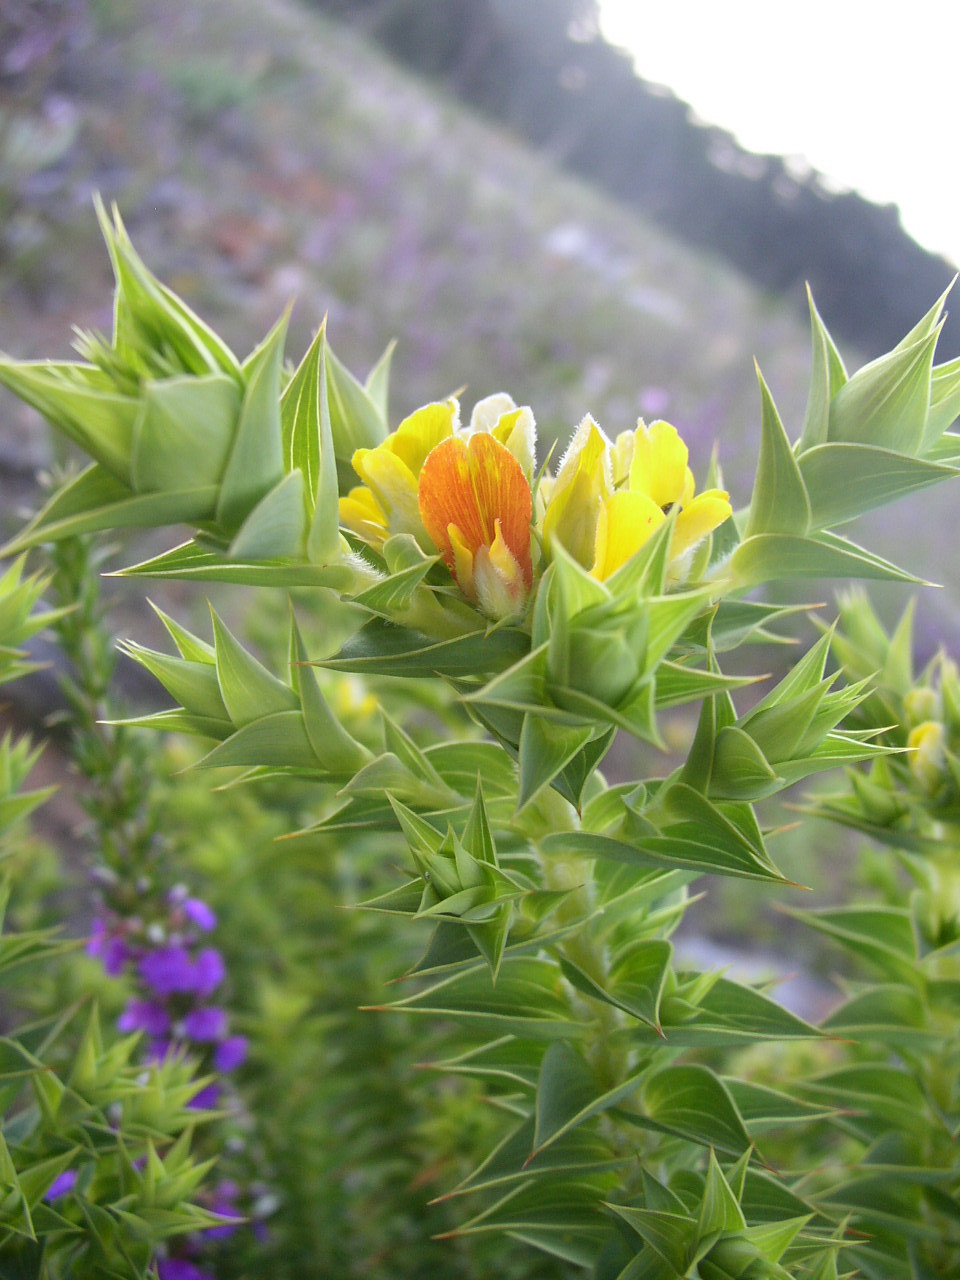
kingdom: Plantae
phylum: Tracheophyta
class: Magnoliopsida
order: Fabales
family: Fabaceae
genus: Aspalathus
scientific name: Aspalathus cordata
